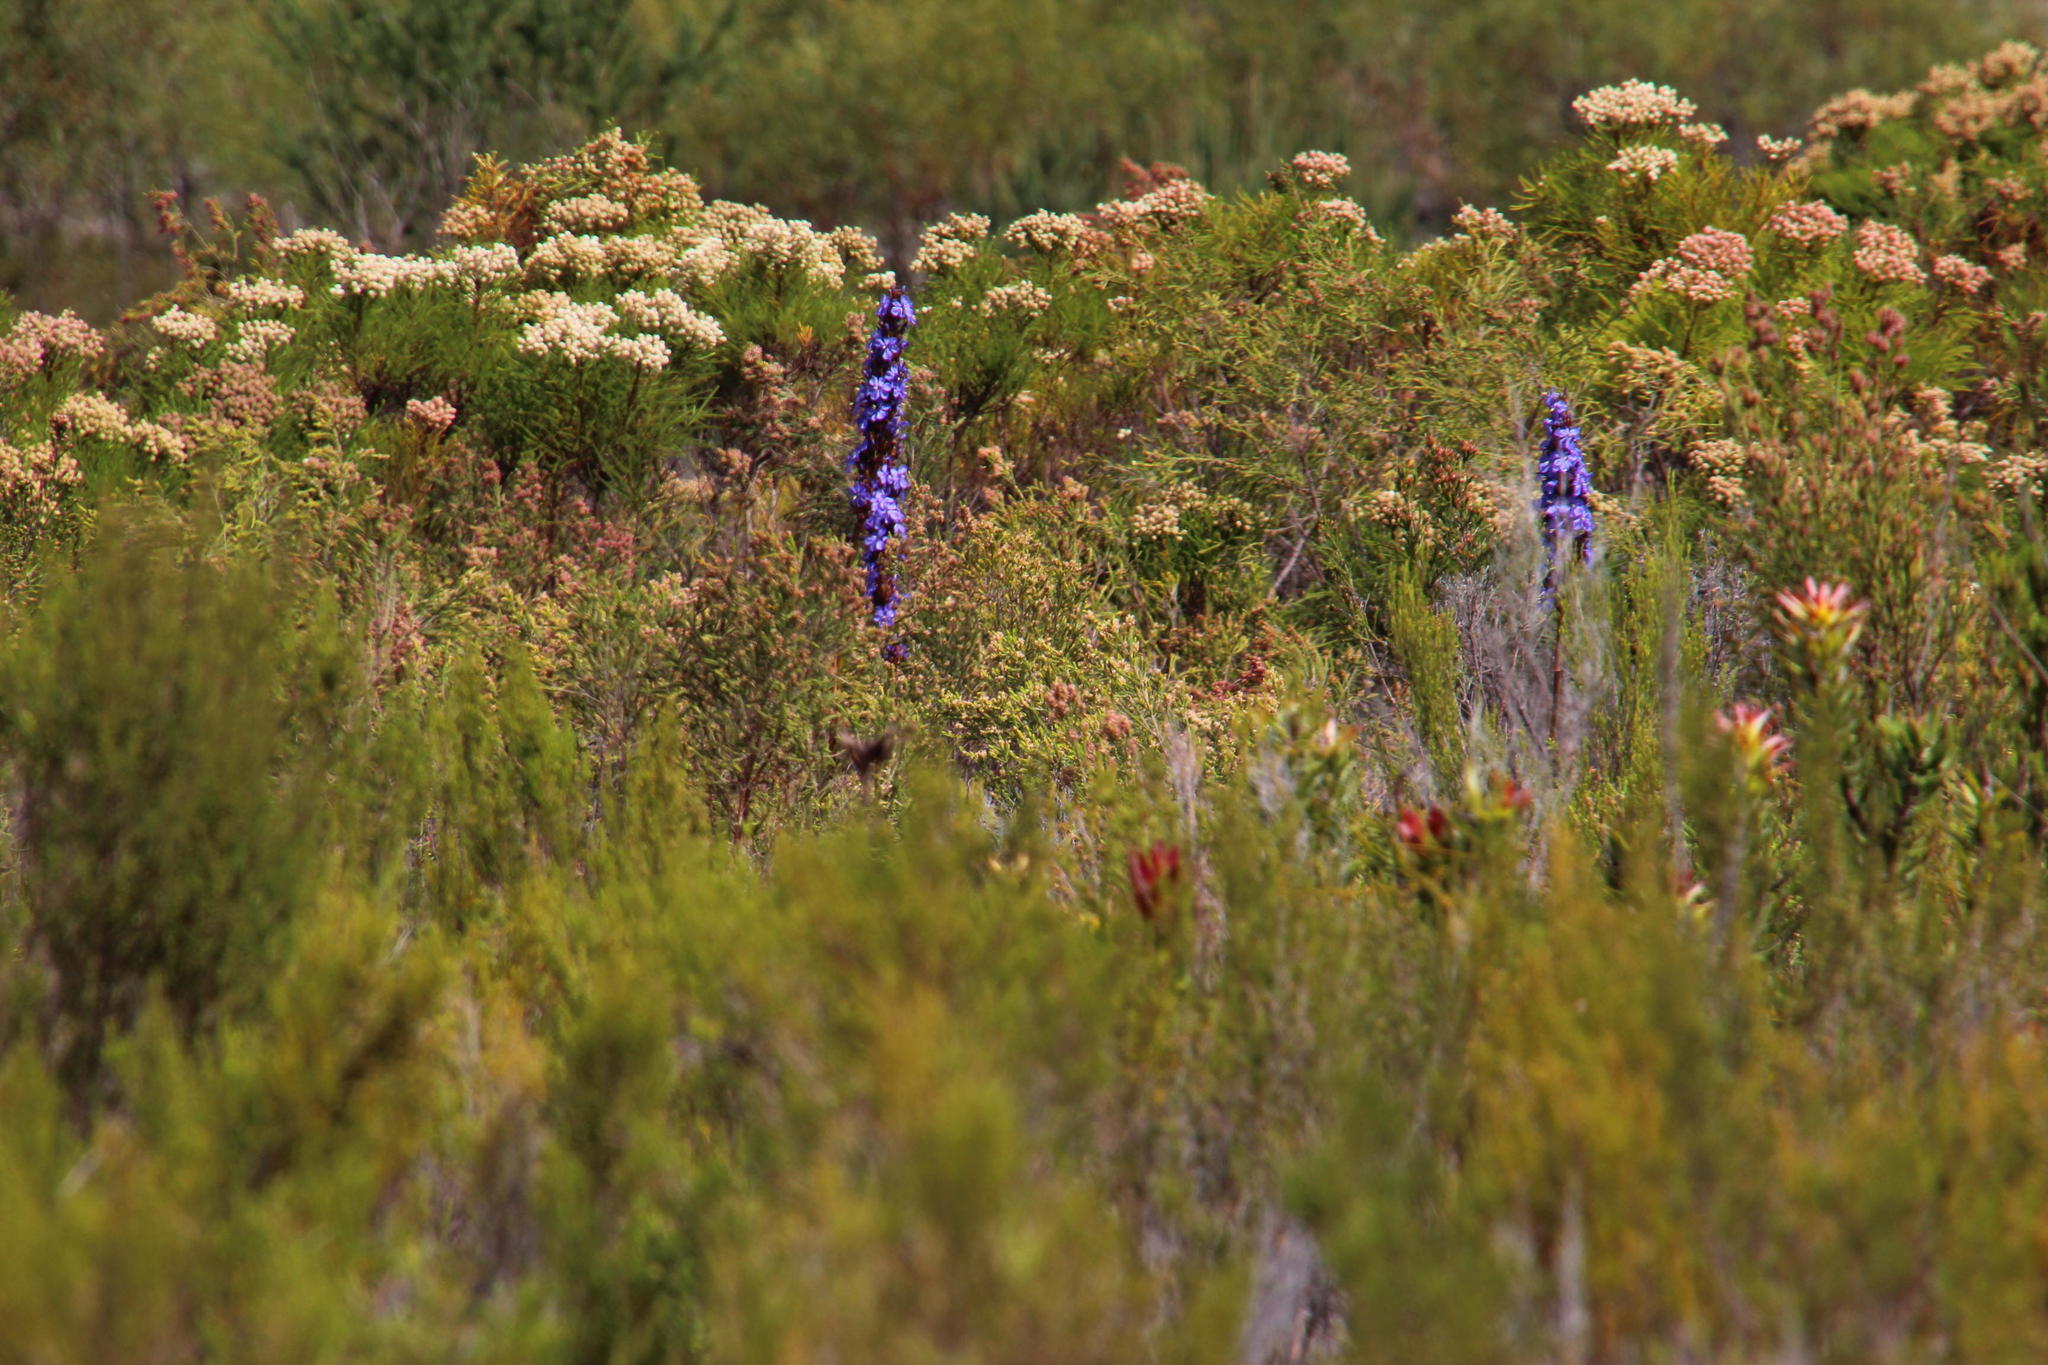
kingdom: Plantae
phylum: Tracheophyta
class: Liliopsida
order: Asparagales
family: Iridaceae
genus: Aristea
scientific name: Aristea capitata
